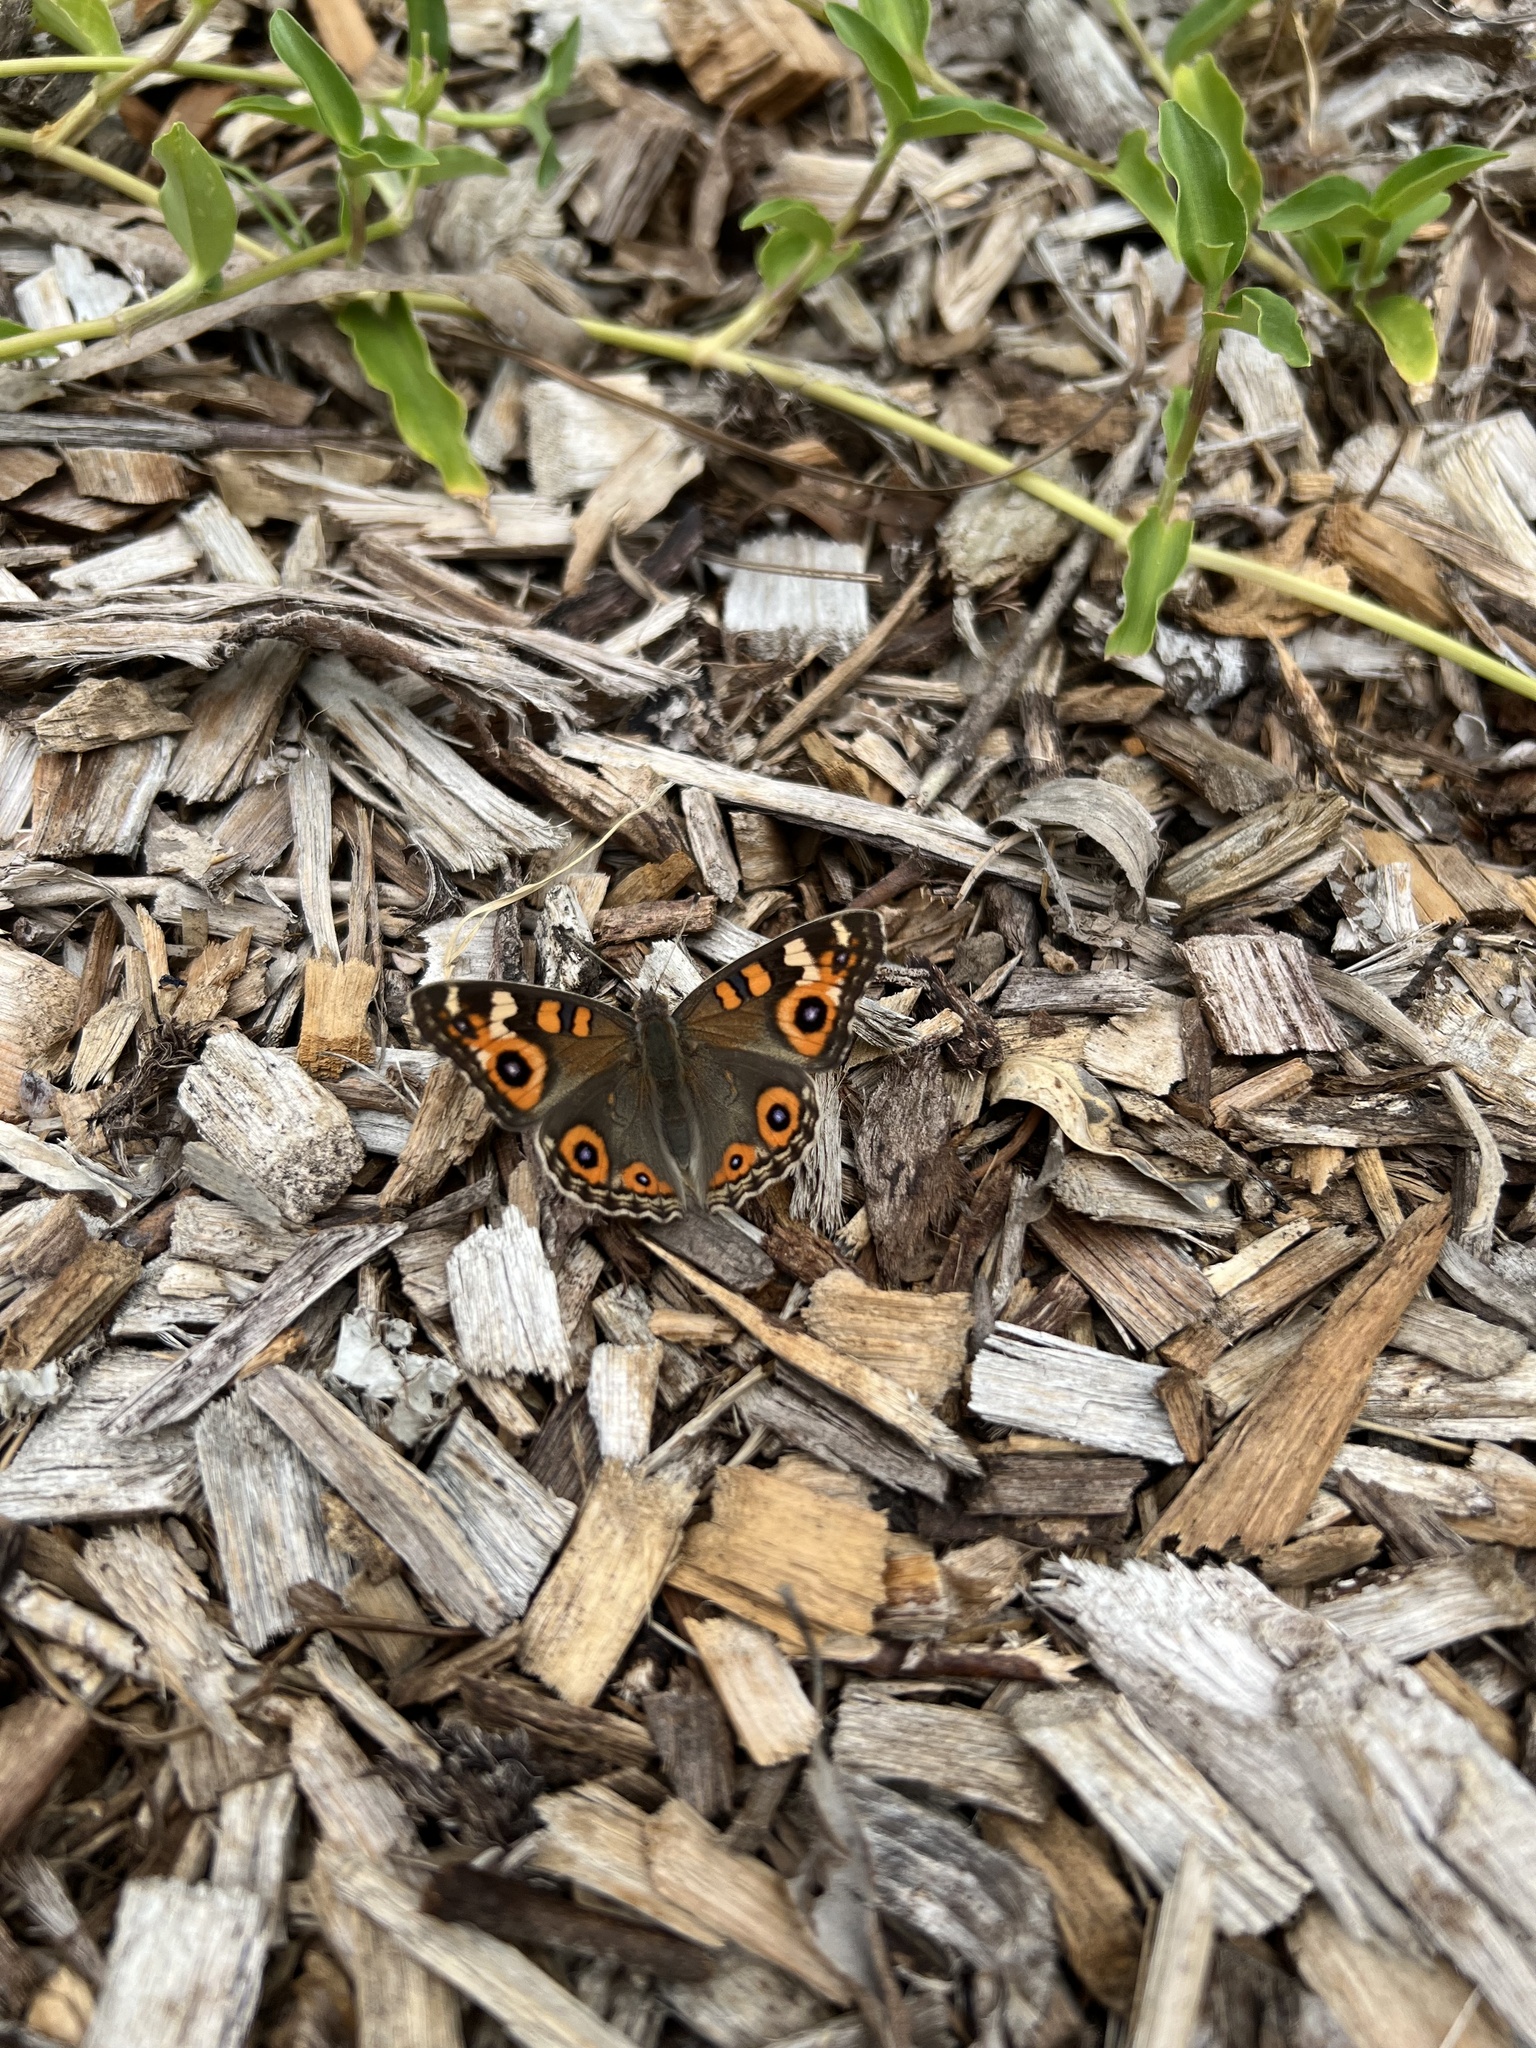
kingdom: Animalia
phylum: Arthropoda
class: Insecta
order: Lepidoptera
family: Nymphalidae
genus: Junonia
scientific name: Junonia villida
